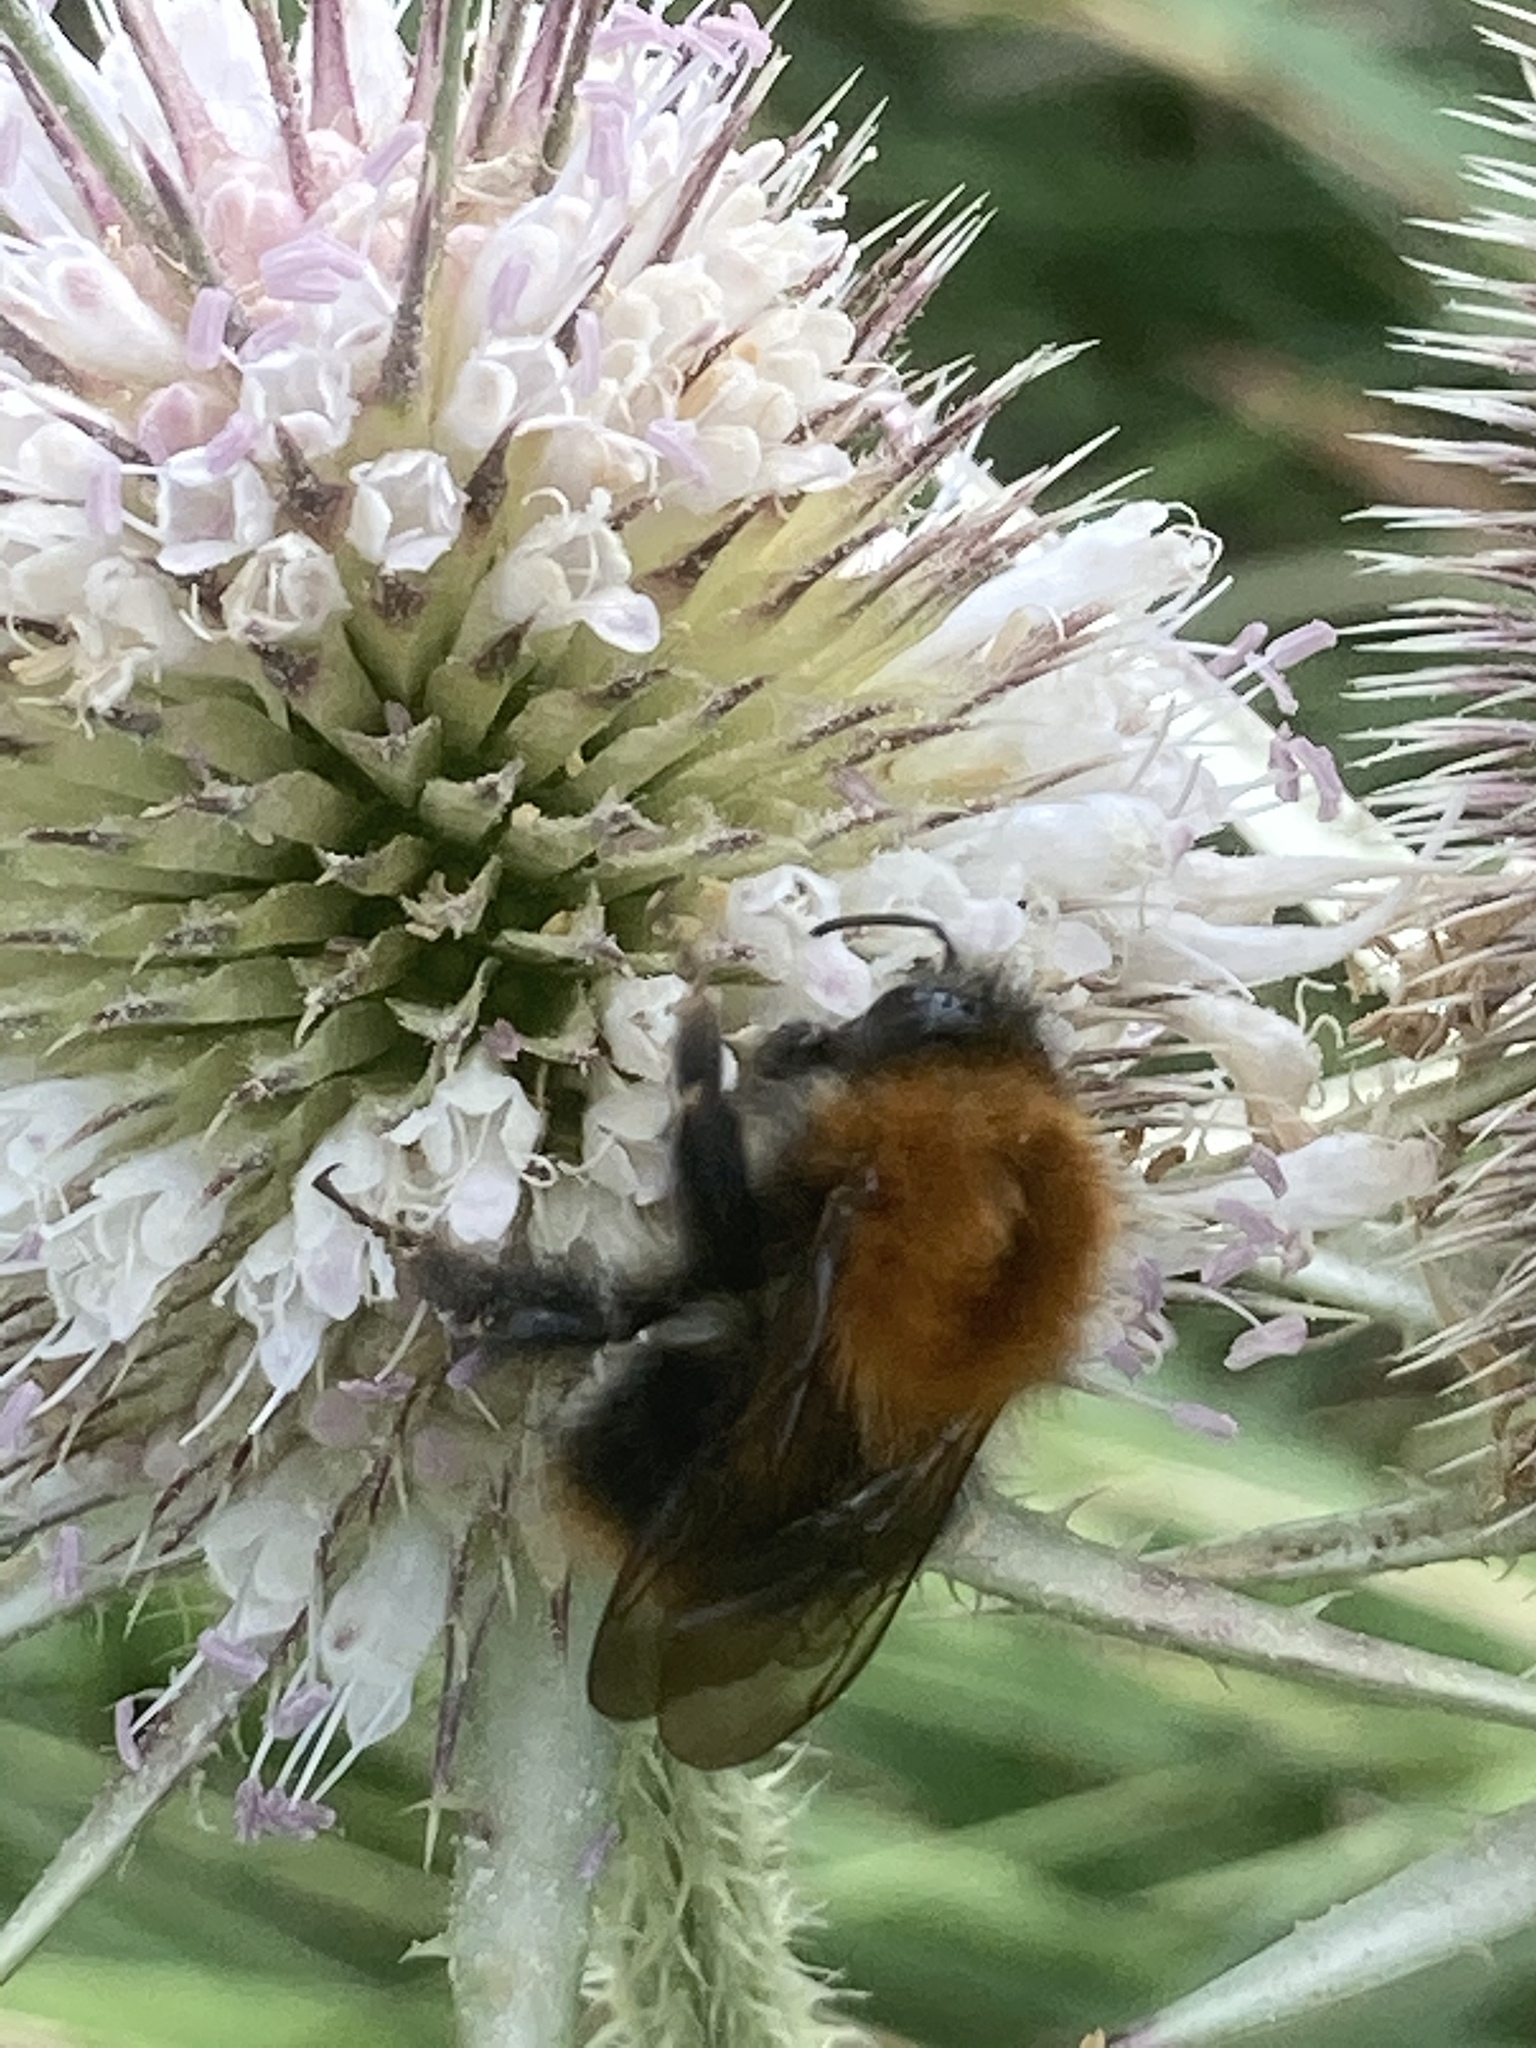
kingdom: Animalia
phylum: Arthropoda
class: Insecta
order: Hymenoptera
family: Apidae
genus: Bombus
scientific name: Bombus pascuorum
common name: Common carder bee
